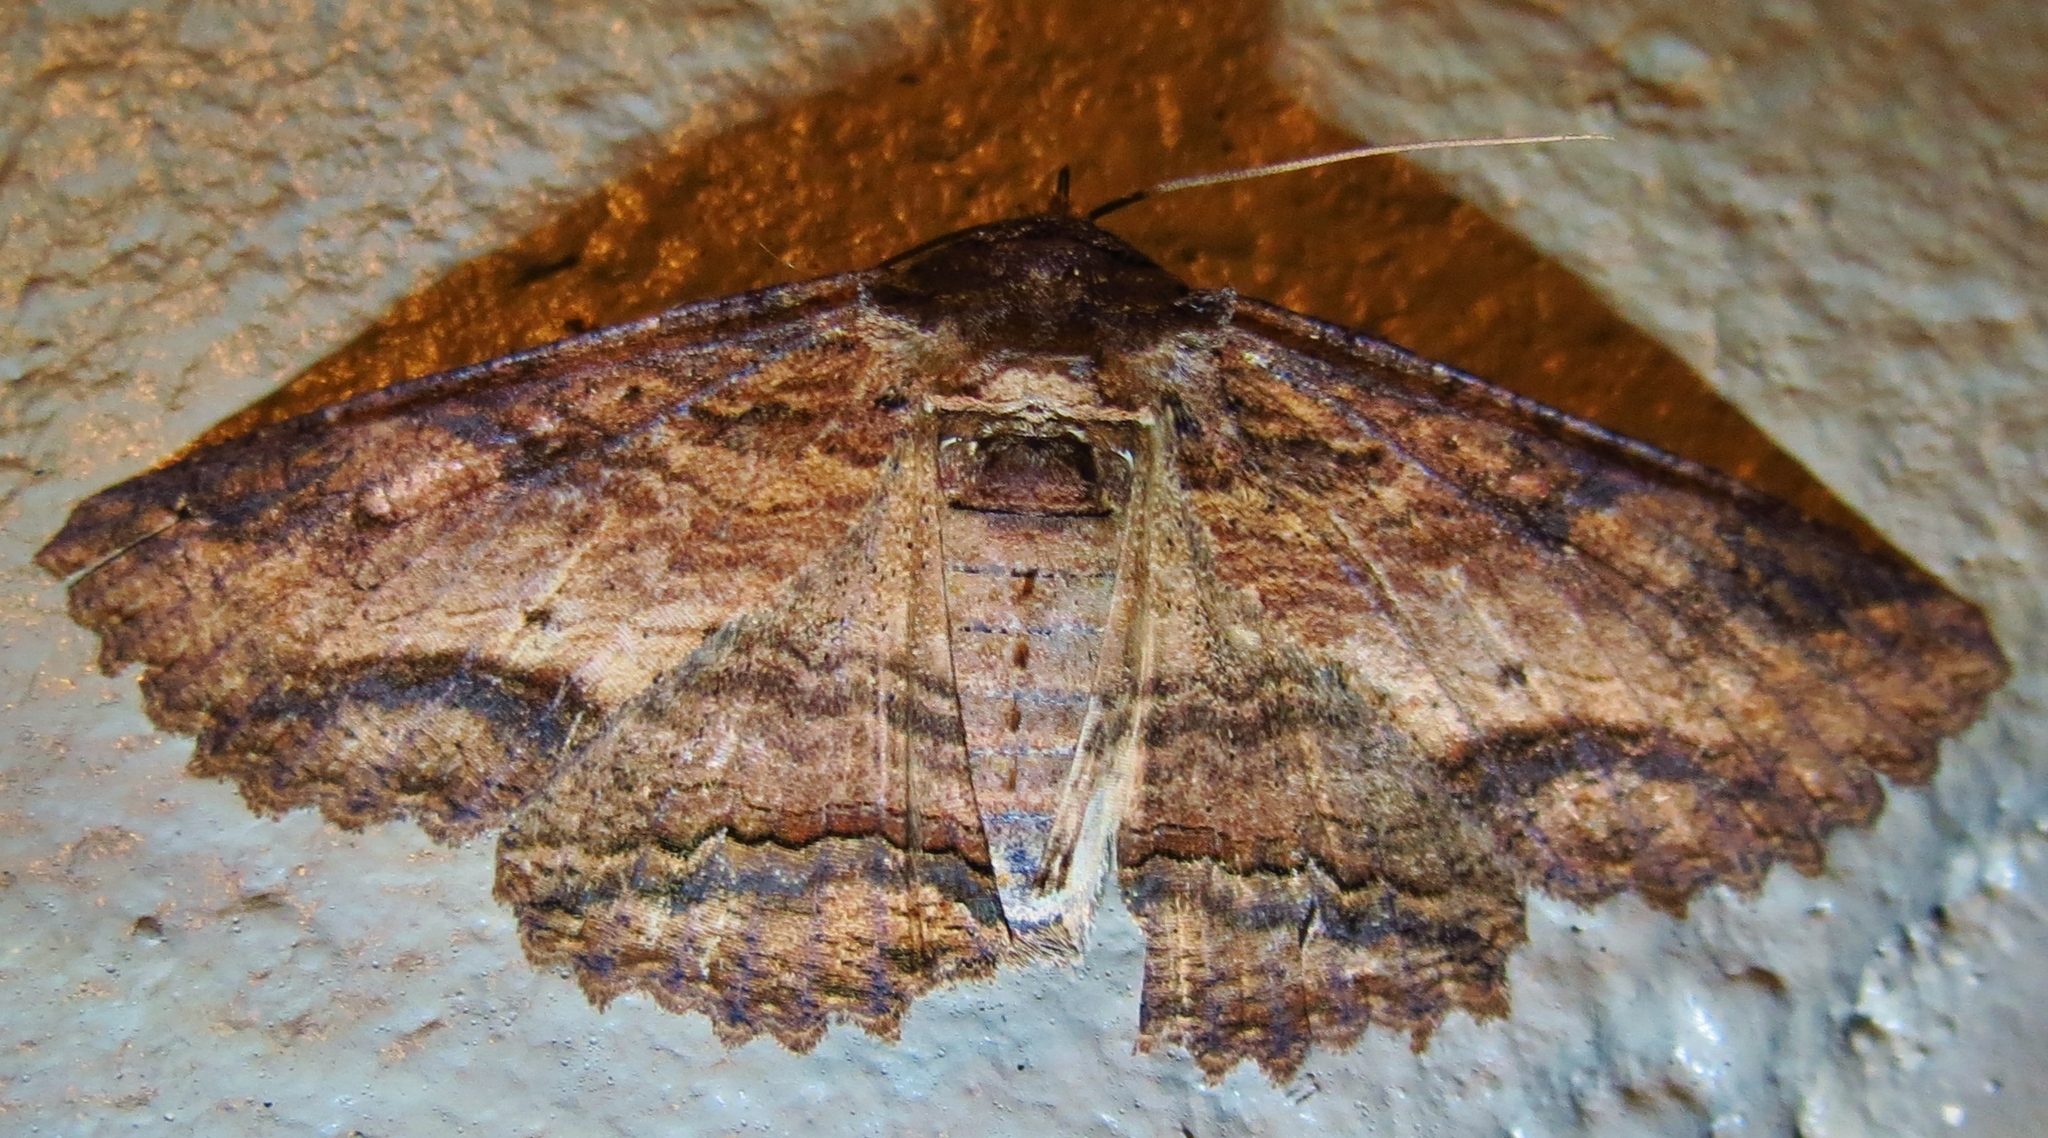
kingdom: Animalia
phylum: Arthropoda
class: Insecta
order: Lepidoptera
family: Erebidae
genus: Zale
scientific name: Zale lunata
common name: Lunate zale moth
